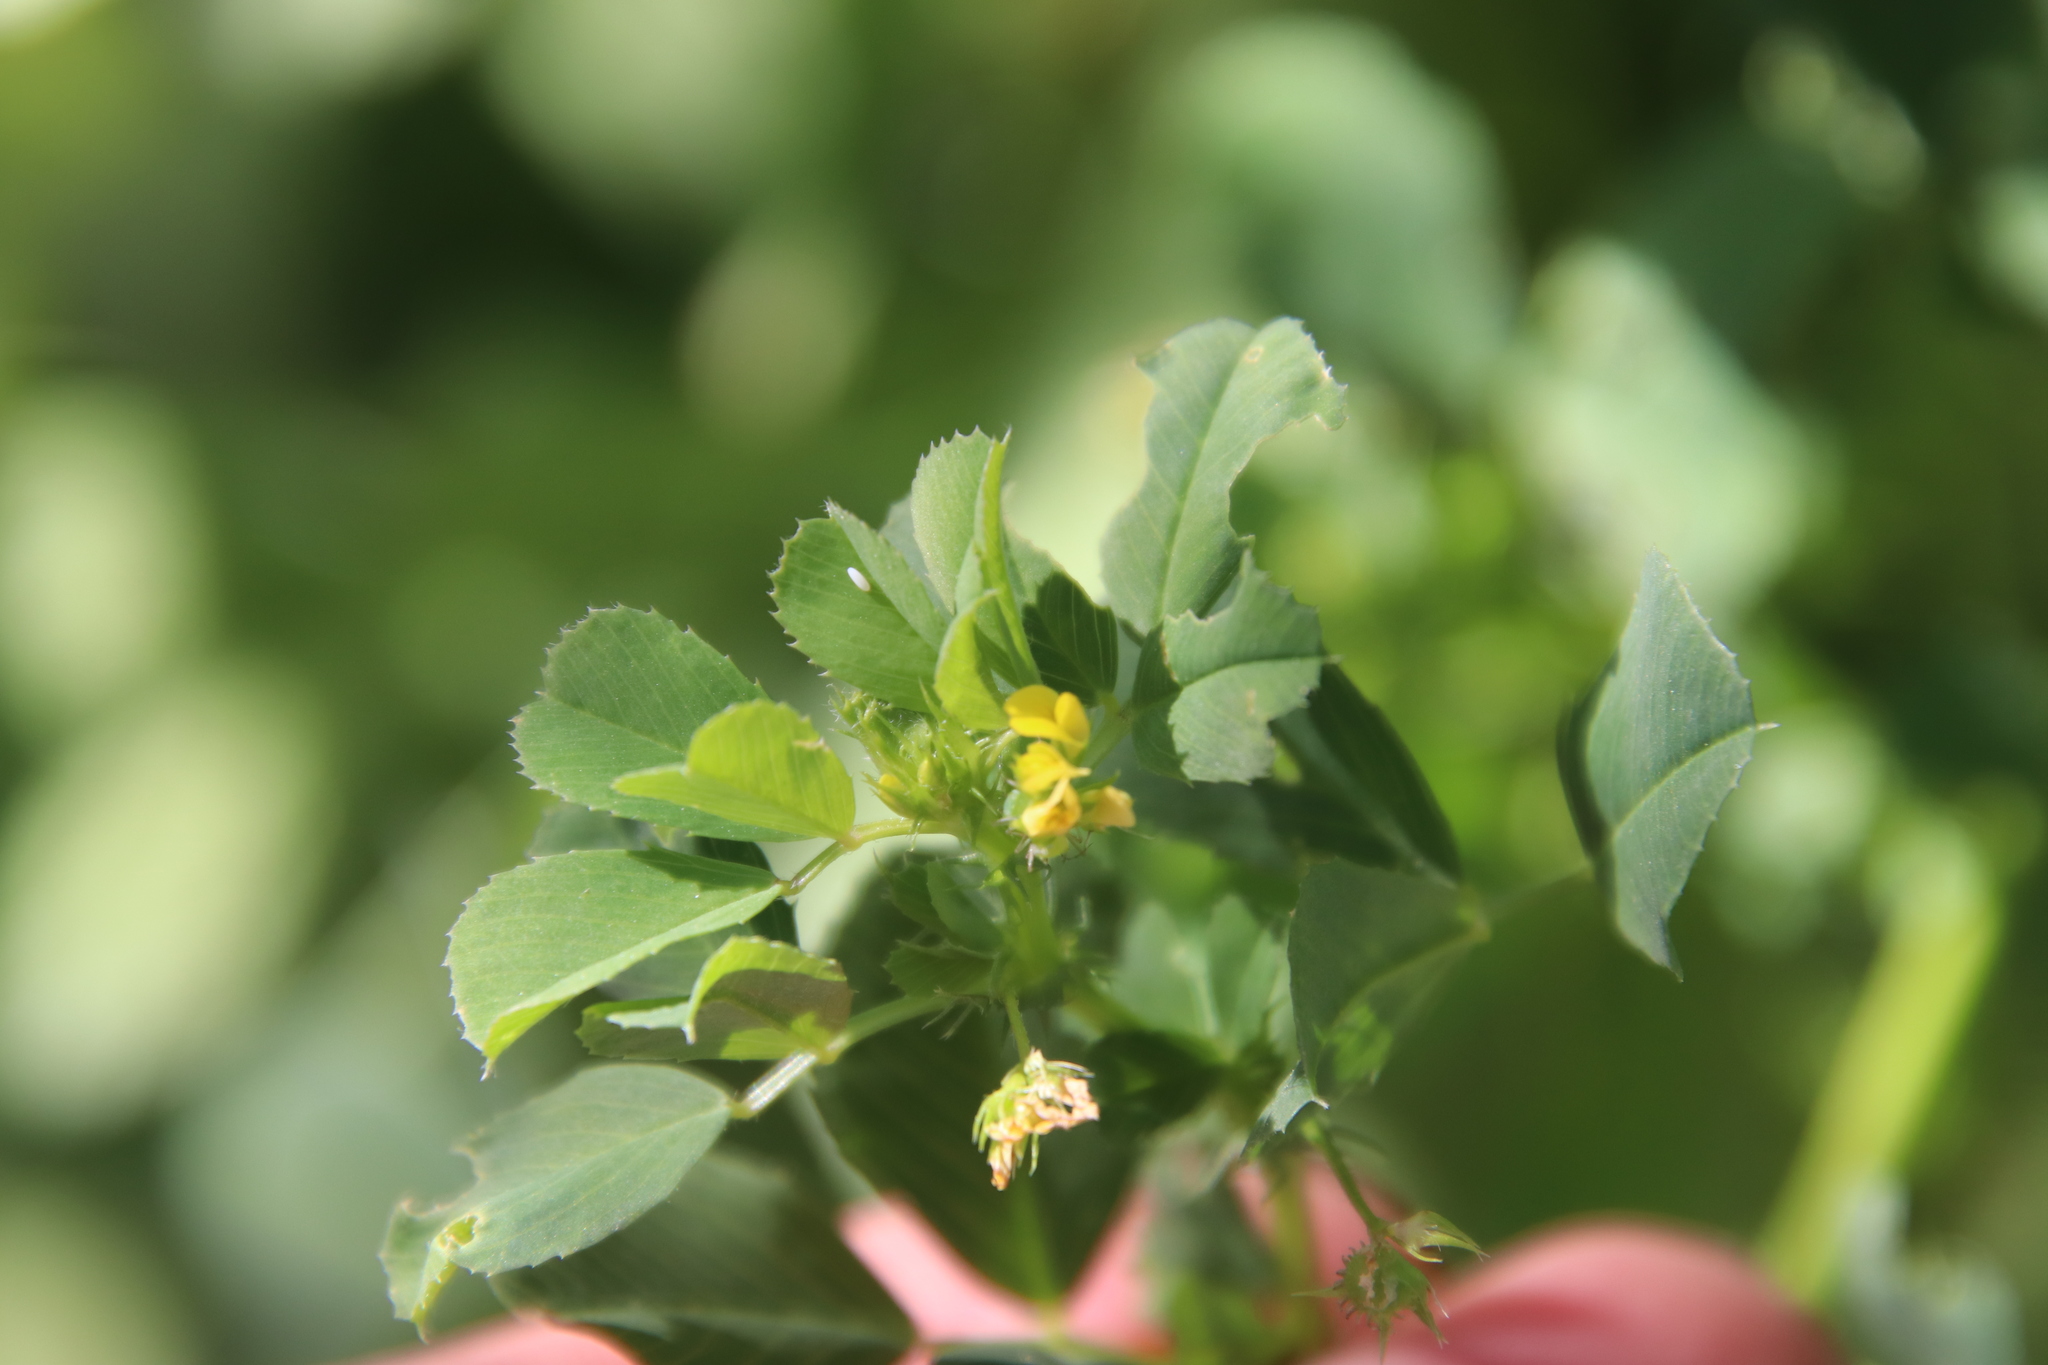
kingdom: Plantae
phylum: Tracheophyta
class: Magnoliopsida
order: Fabales
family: Fabaceae
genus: Medicago
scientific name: Medicago polymorpha
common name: Burclover
